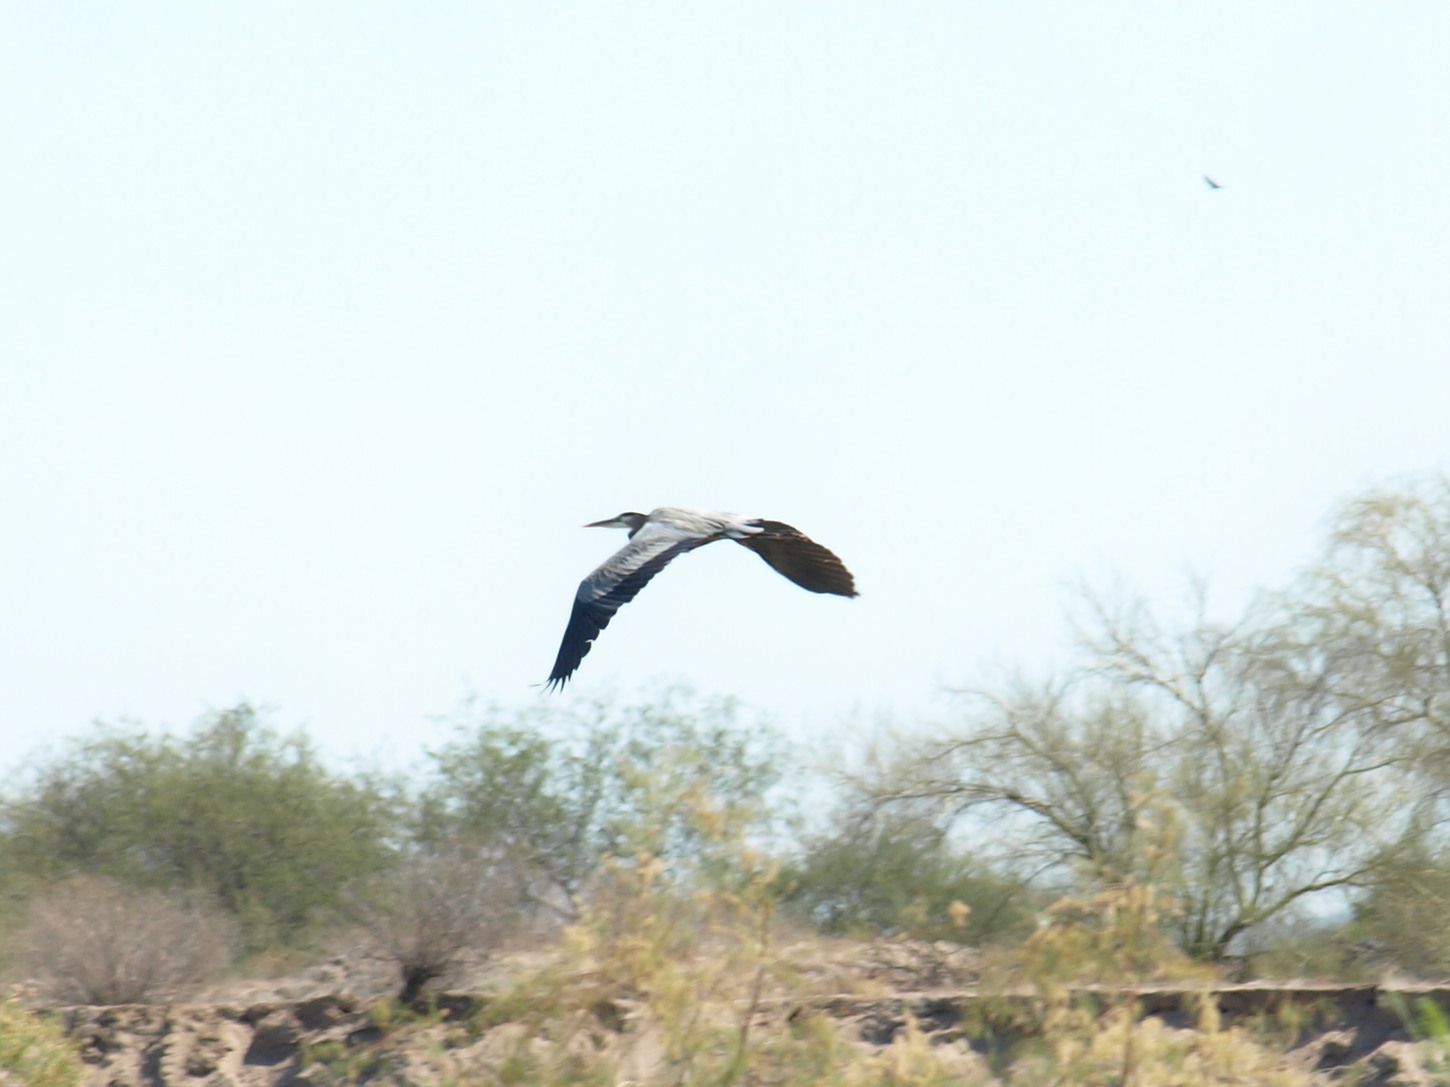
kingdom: Animalia
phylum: Chordata
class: Aves
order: Pelecaniformes
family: Ardeidae
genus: Ardea
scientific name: Ardea herodias
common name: Great blue heron
